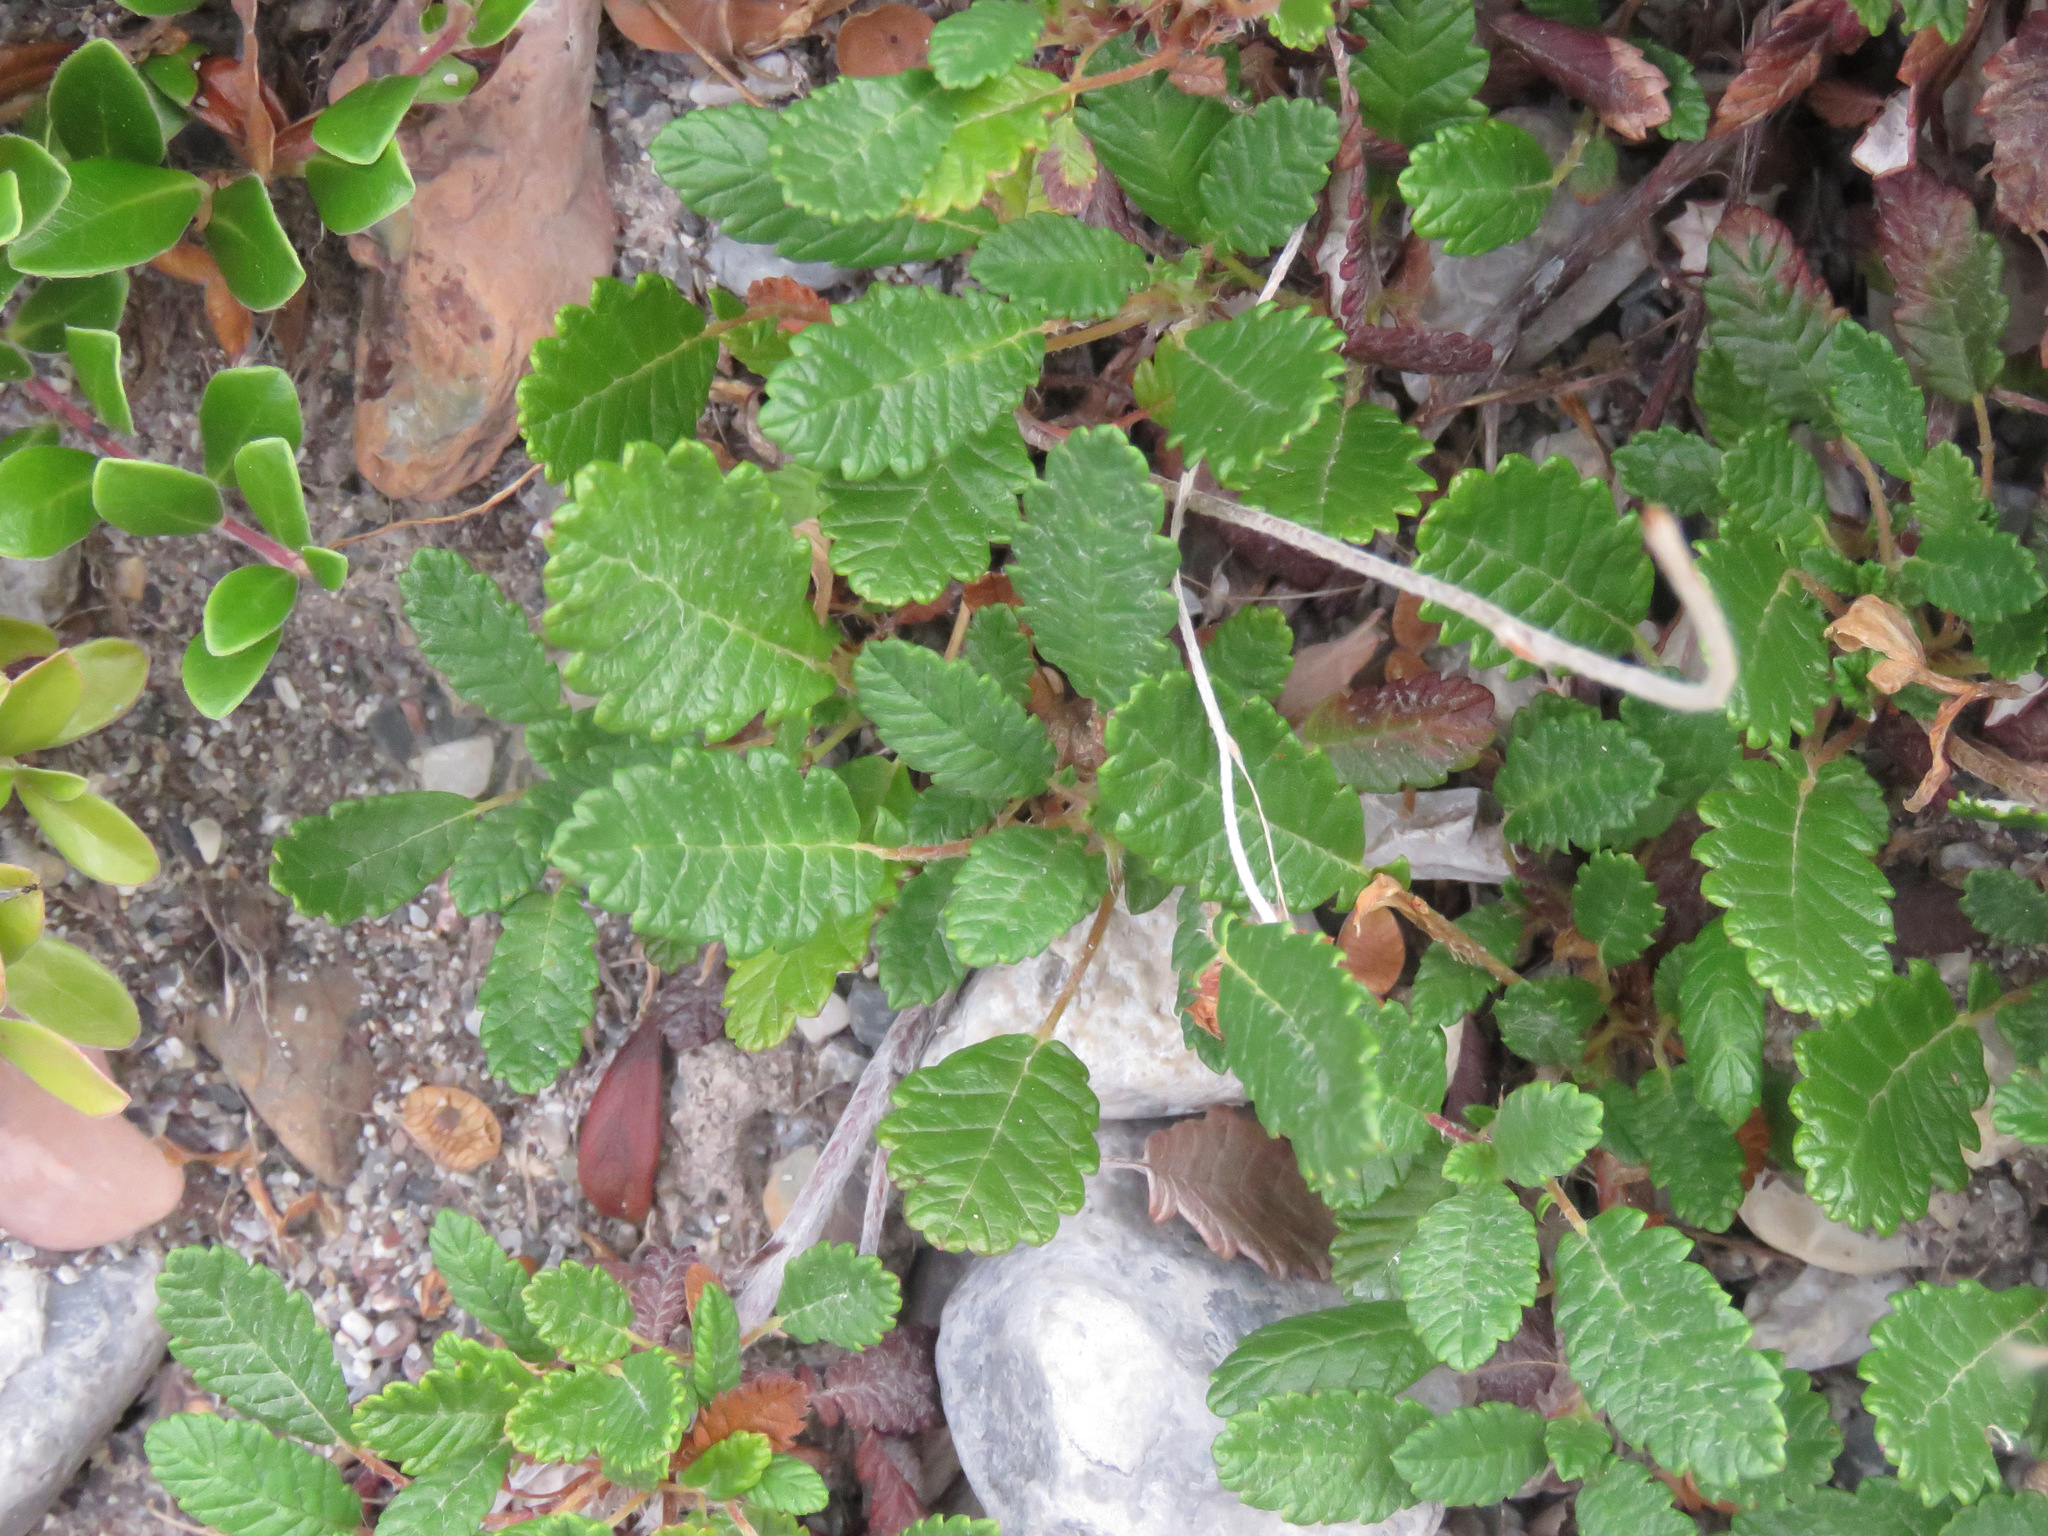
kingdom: Plantae
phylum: Tracheophyta
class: Magnoliopsida
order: Rosales
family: Rosaceae
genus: Dryas
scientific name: Dryas drummondii
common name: Drummond's dryad
